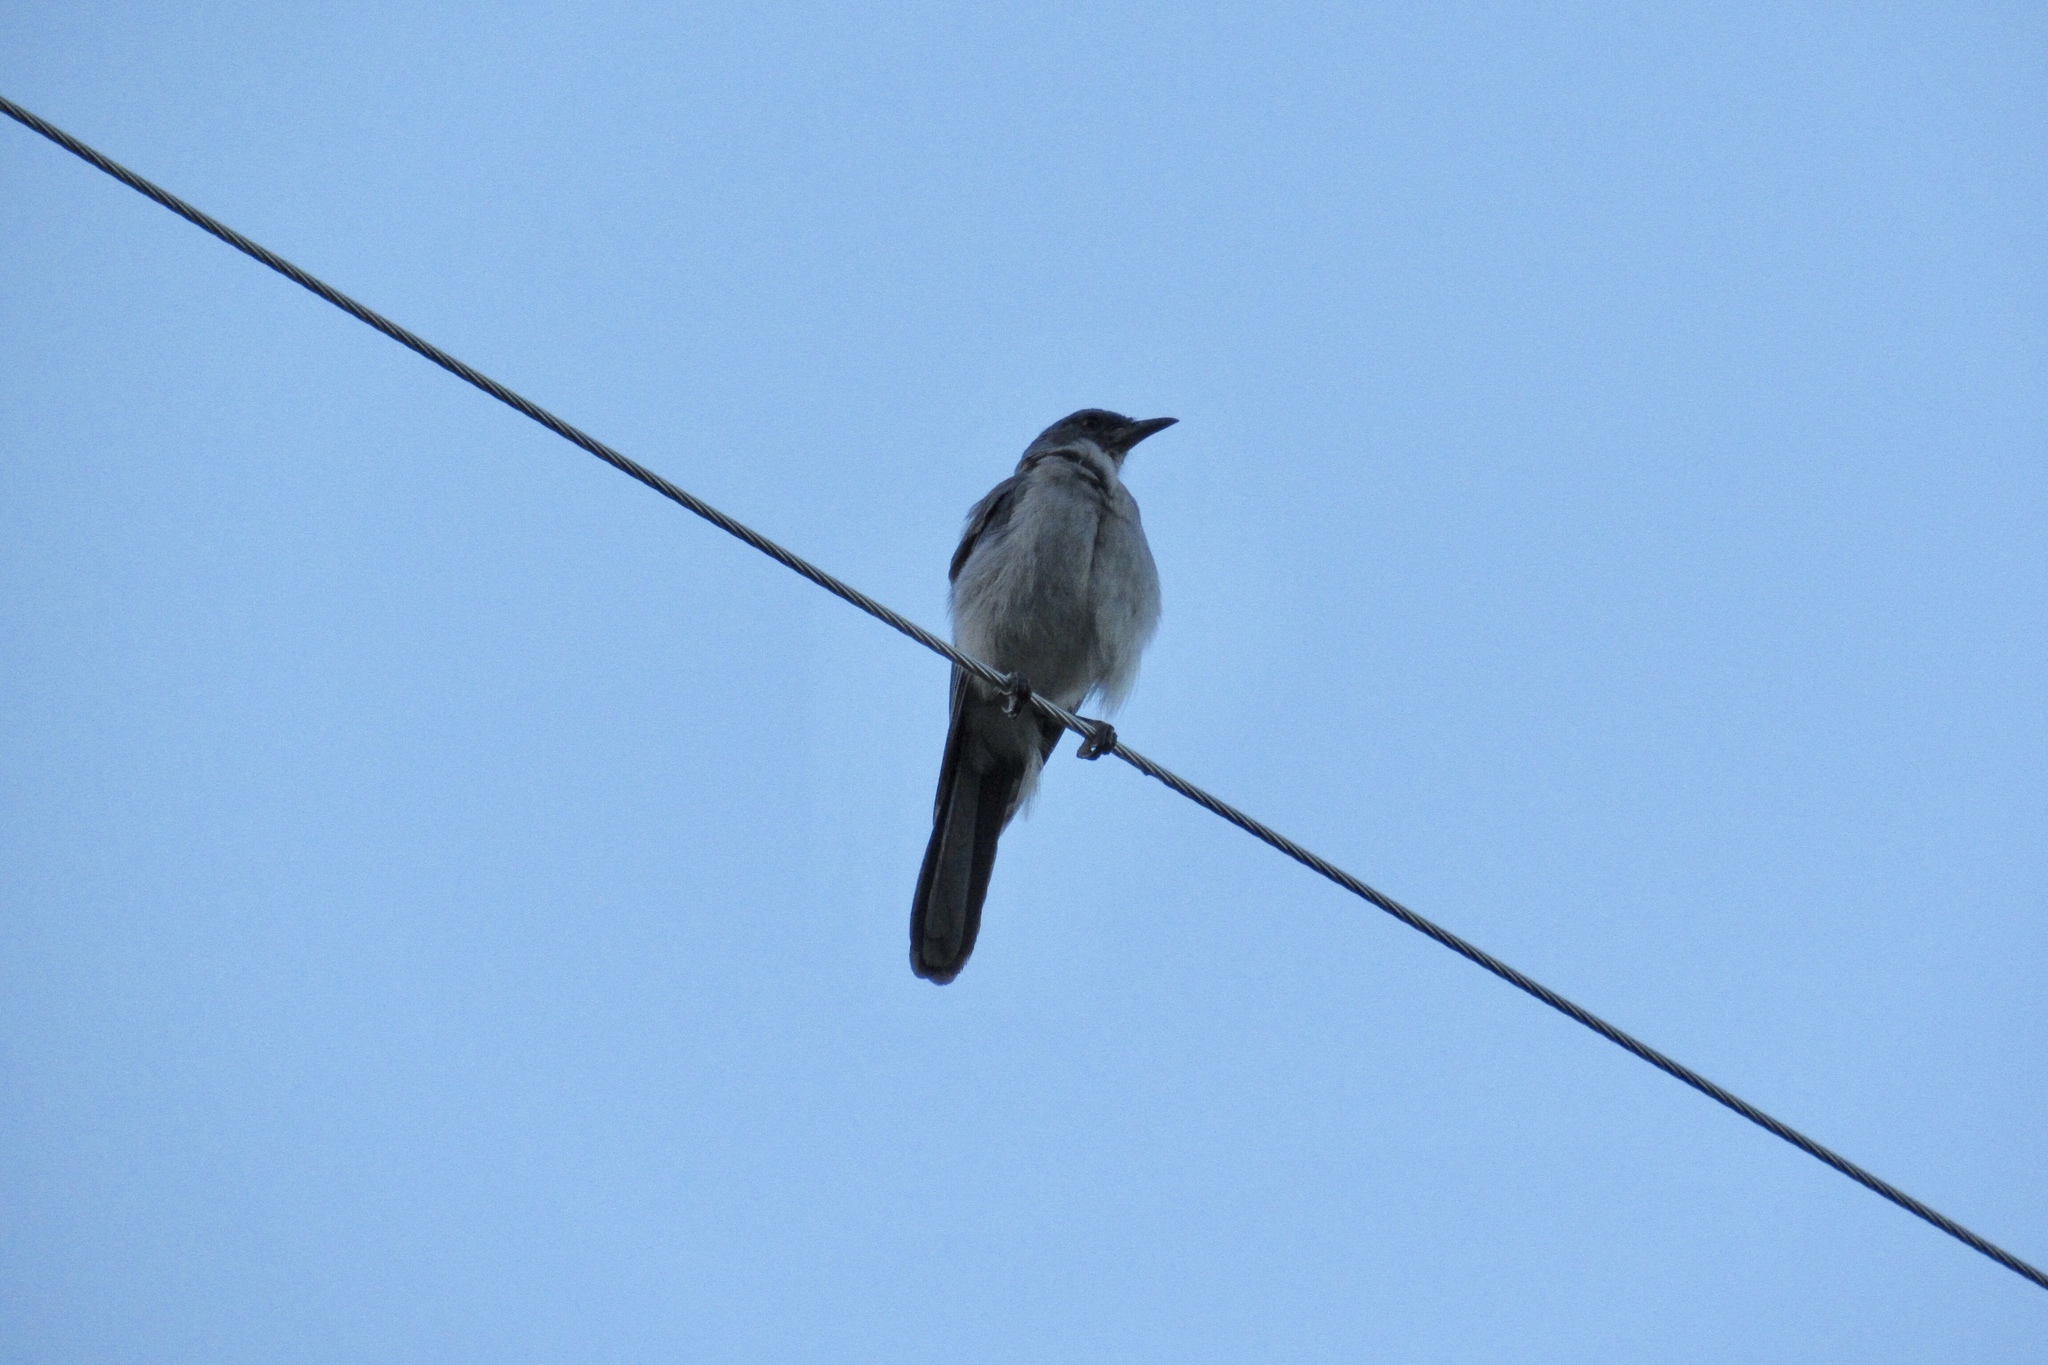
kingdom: Animalia
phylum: Chordata
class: Aves
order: Passeriformes
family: Corvidae
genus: Aphelocoma
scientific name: Aphelocoma wollweberi
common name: Mexican jay
